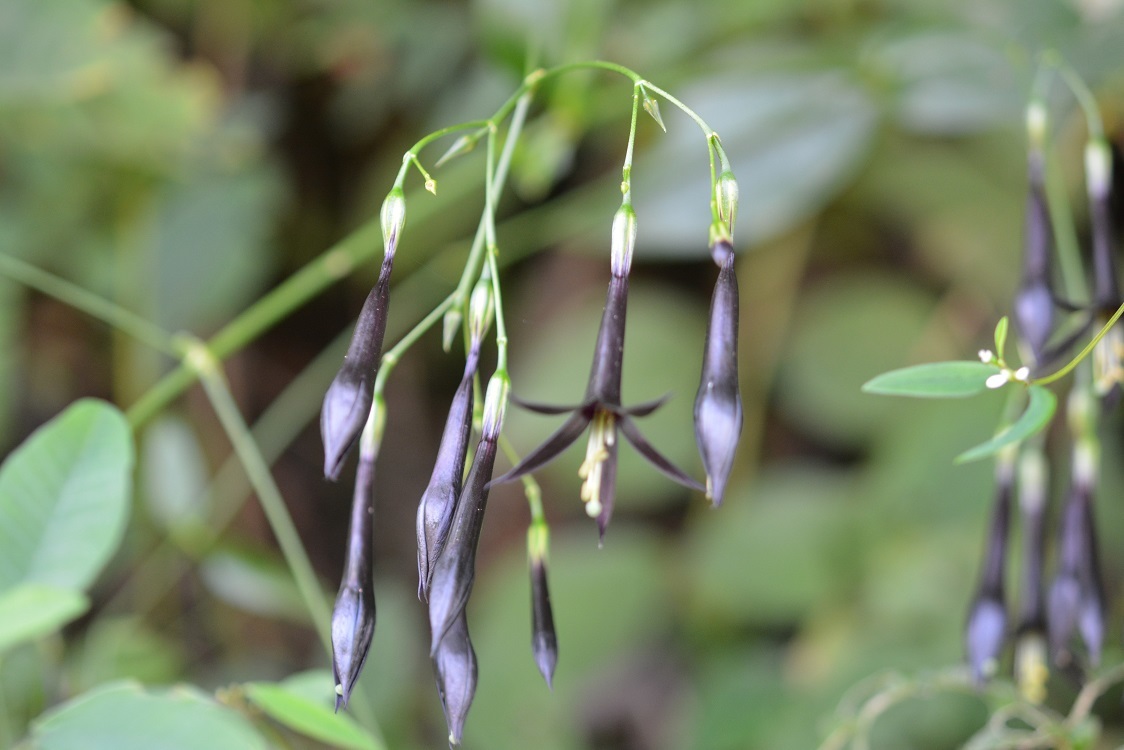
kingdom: Plantae
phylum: Tracheophyta
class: Magnoliopsida
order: Gentianales
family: Gentianaceae
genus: Lisianthus
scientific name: Lisianthus nigrescens
